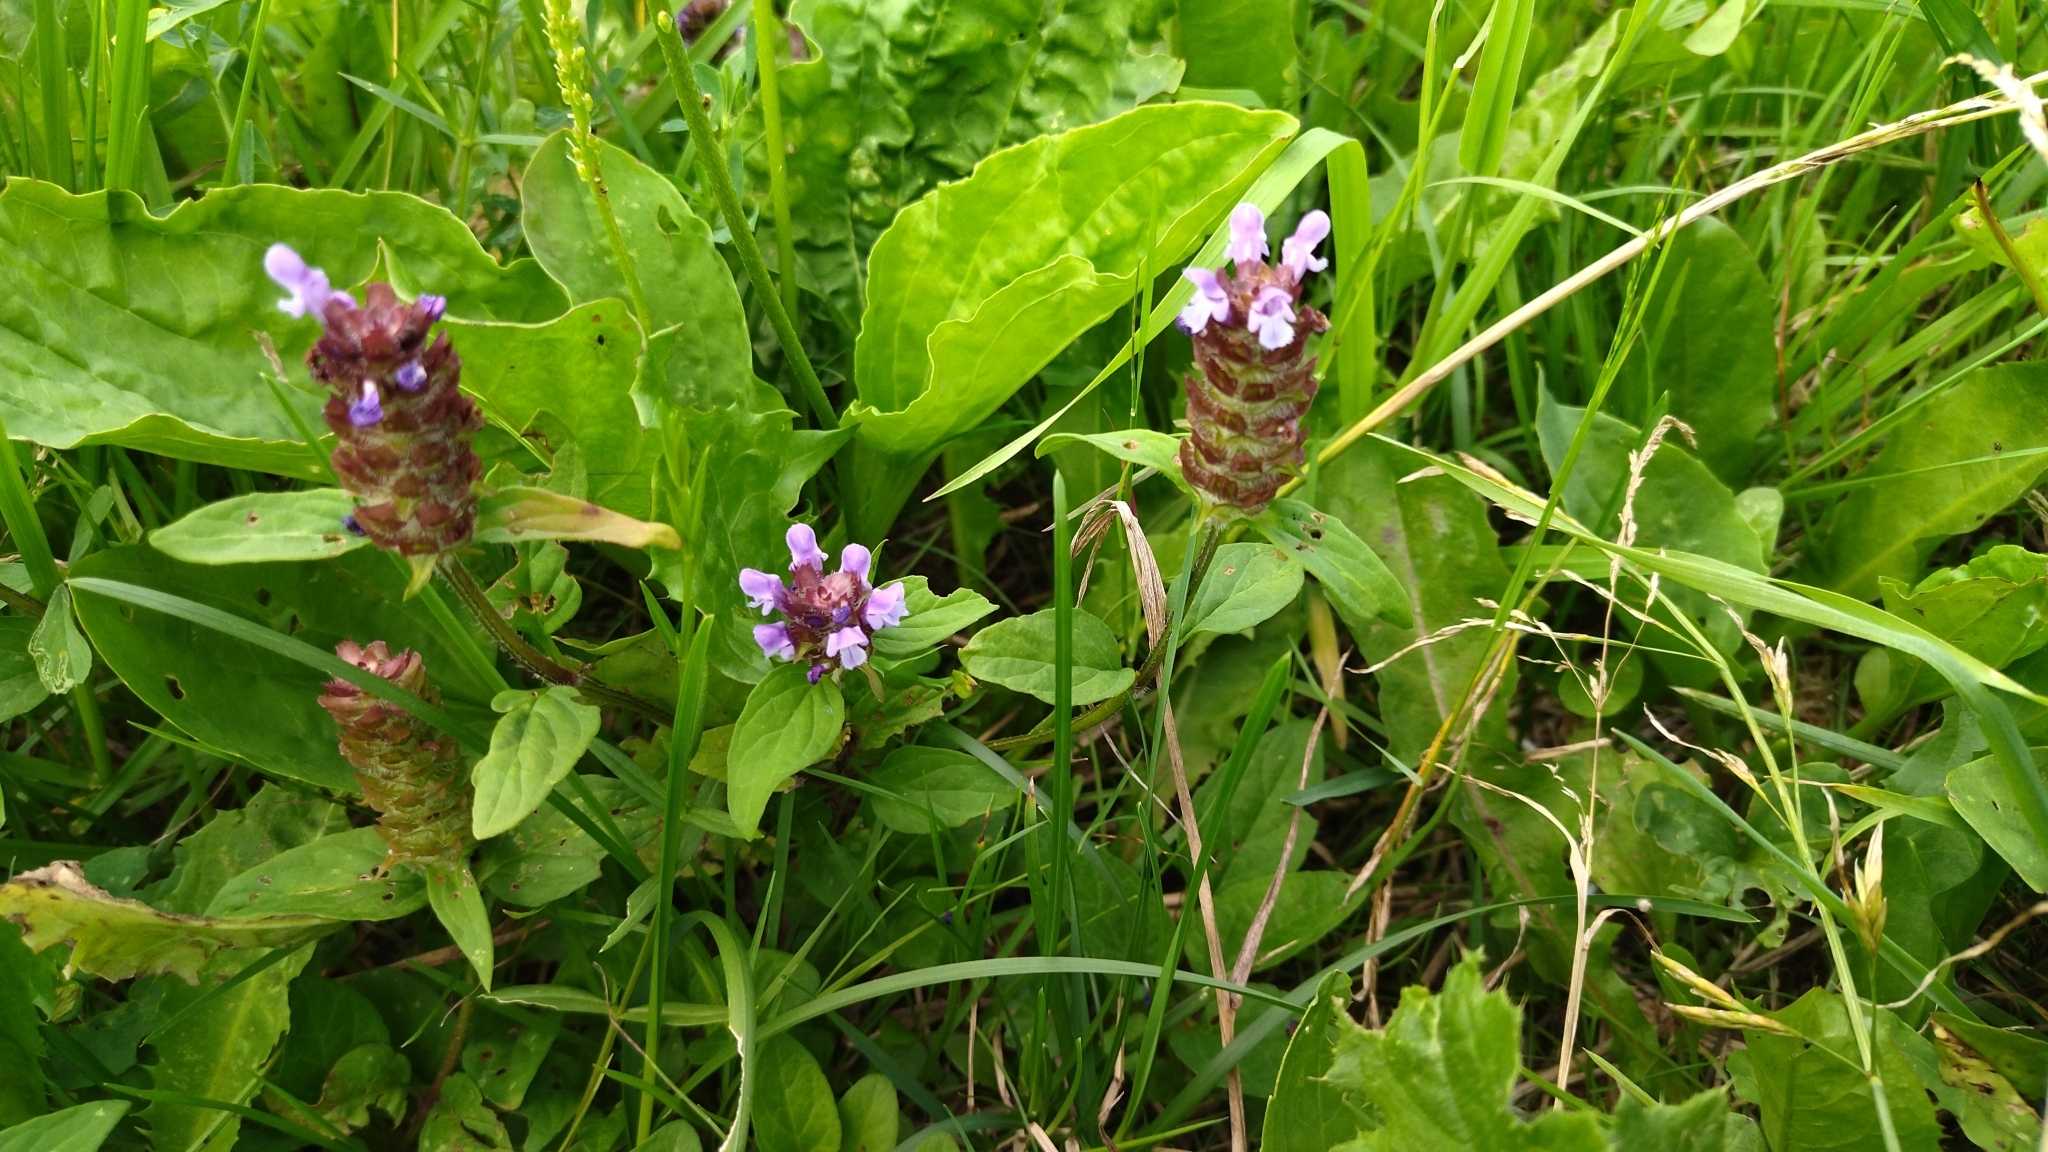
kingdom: Plantae
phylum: Tracheophyta
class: Magnoliopsida
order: Lamiales
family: Lamiaceae
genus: Prunella
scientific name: Prunella vulgaris
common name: Heal-all
